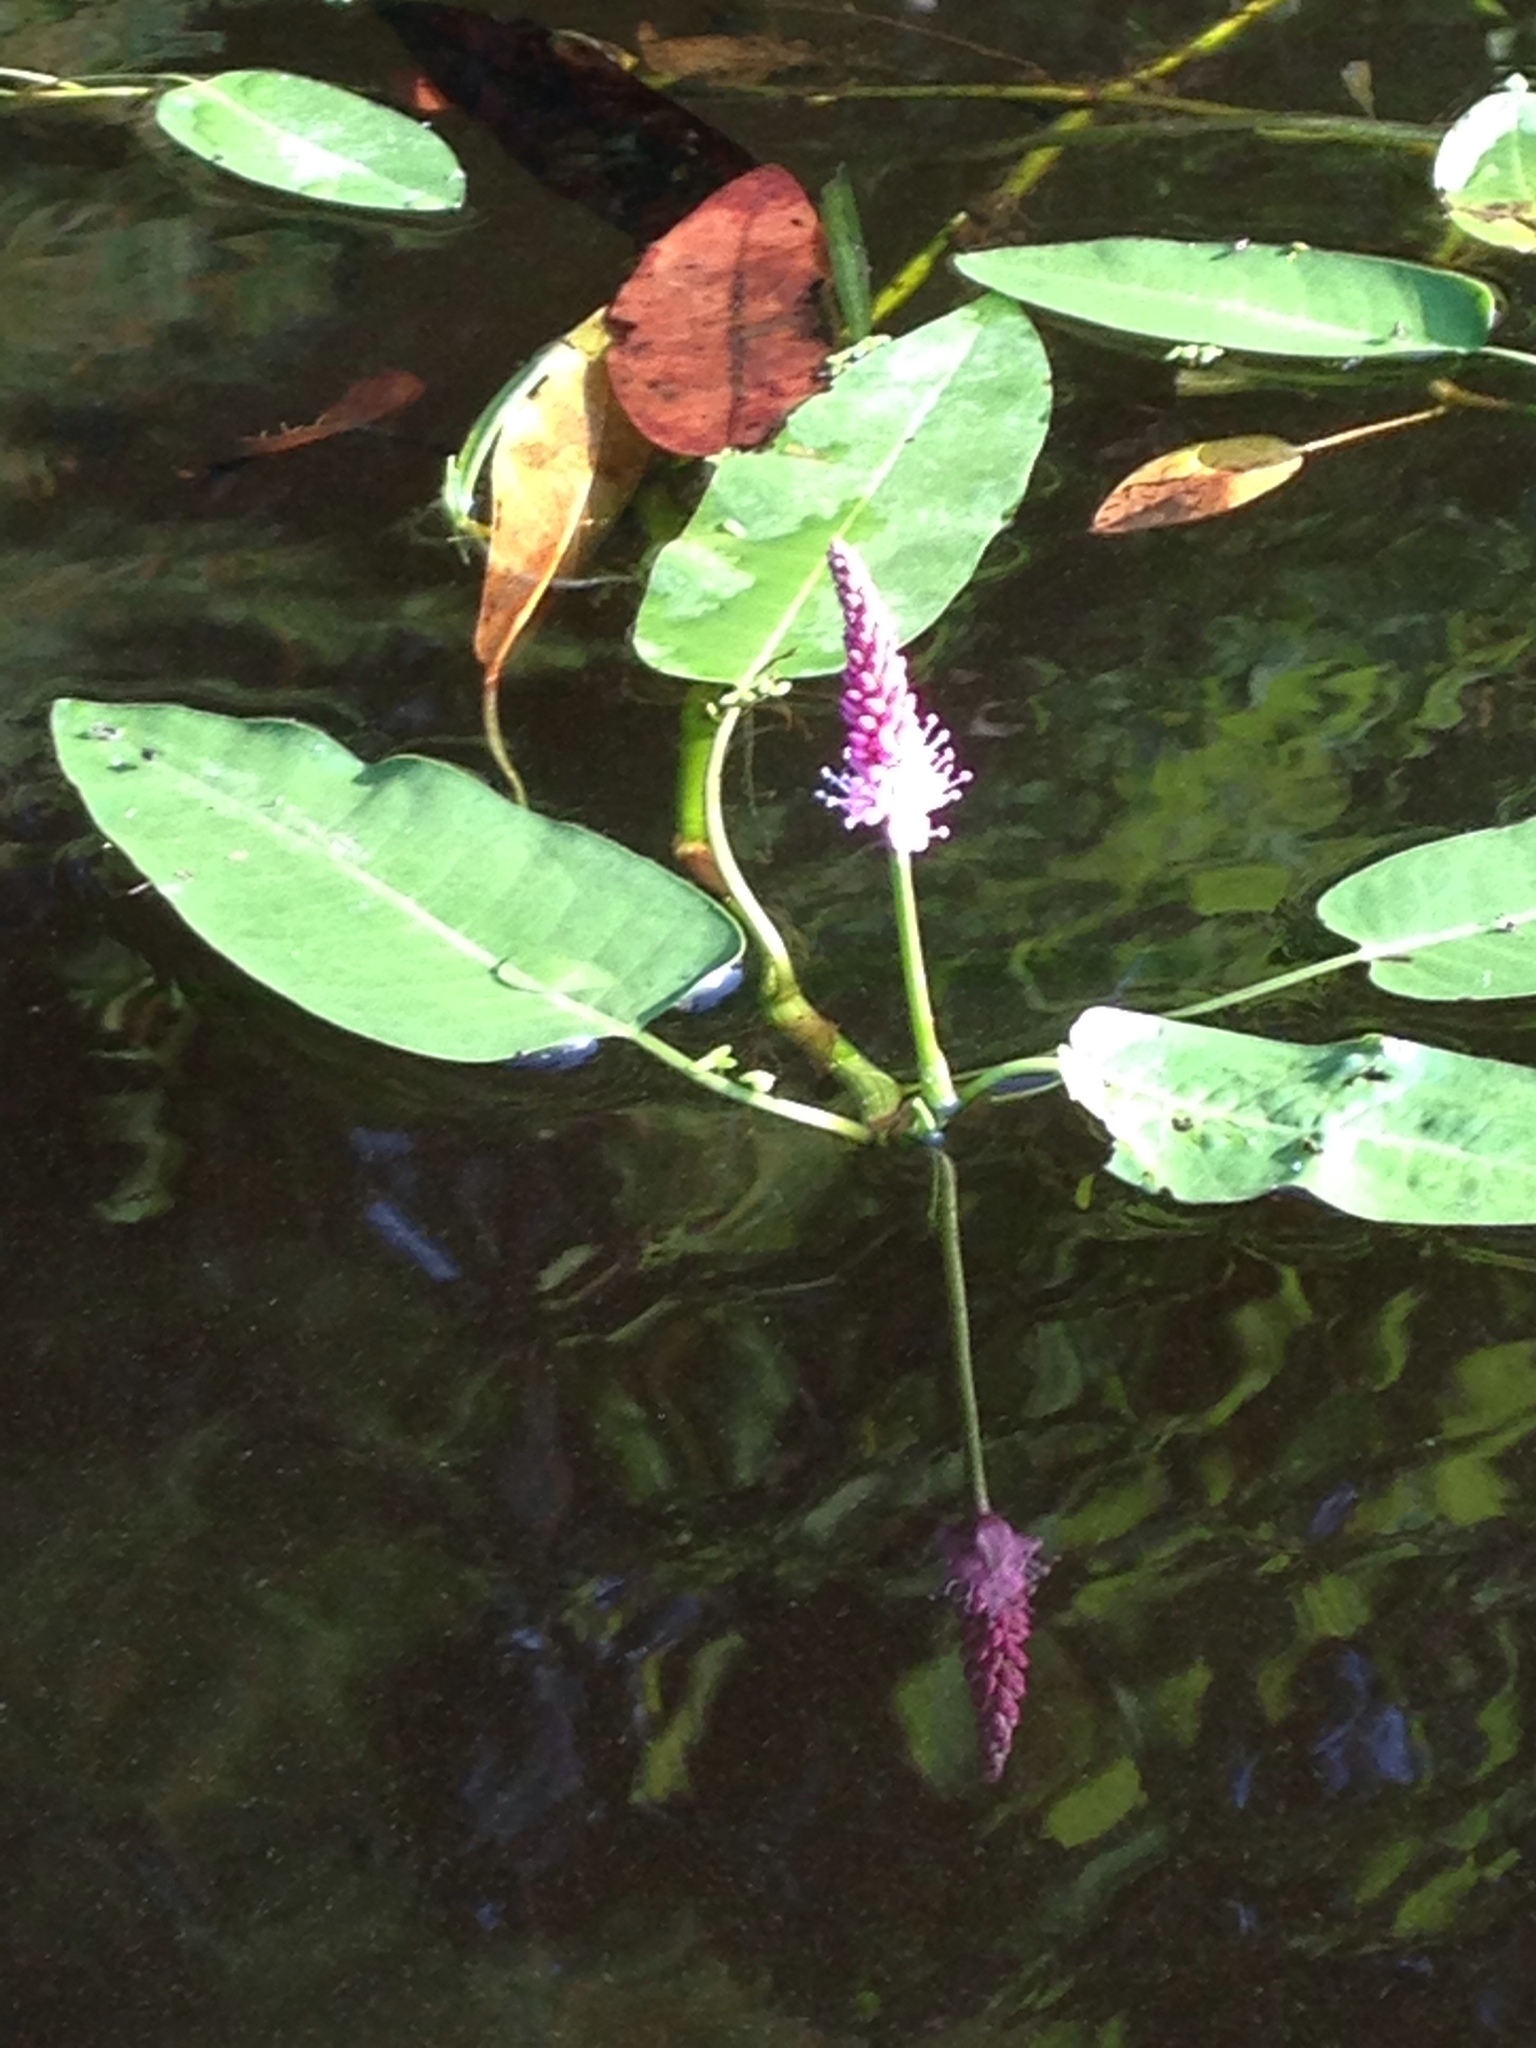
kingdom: Plantae
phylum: Tracheophyta
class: Magnoliopsida
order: Caryophyllales
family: Polygonaceae
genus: Persicaria
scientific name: Persicaria amphibia
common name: Amphibious bistort
